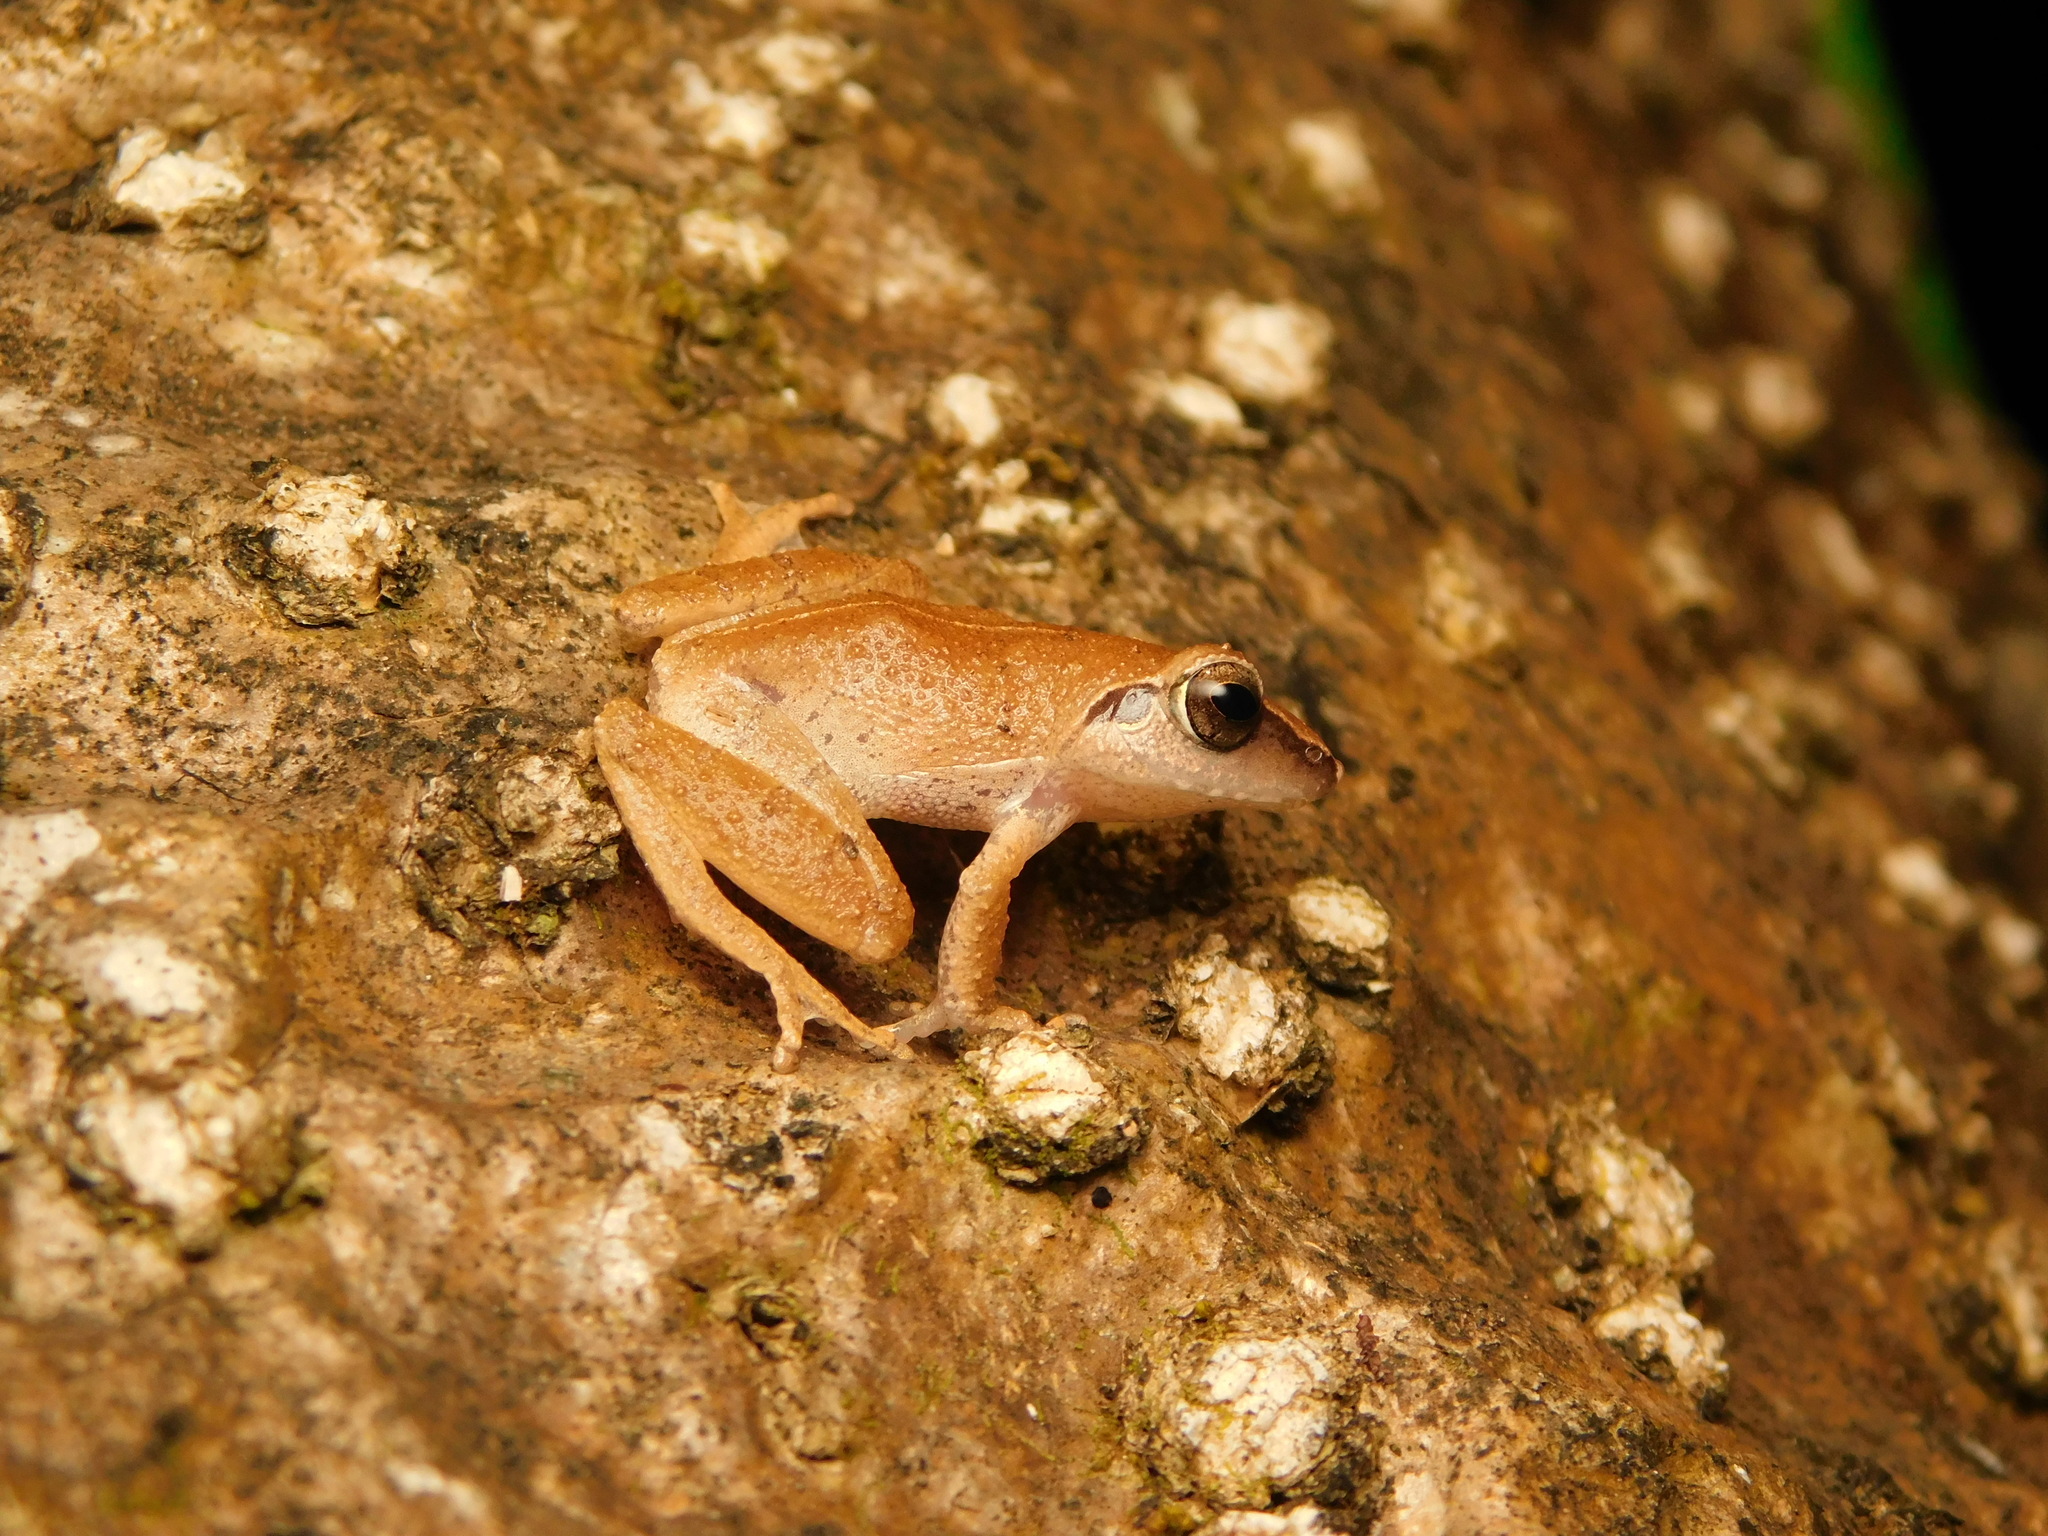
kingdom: Animalia
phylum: Chordata
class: Amphibia
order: Anura
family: Rhacophoridae
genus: Pseudophilautus
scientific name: Pseudophilautus wynaadensis
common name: Dark-eared bush frog
